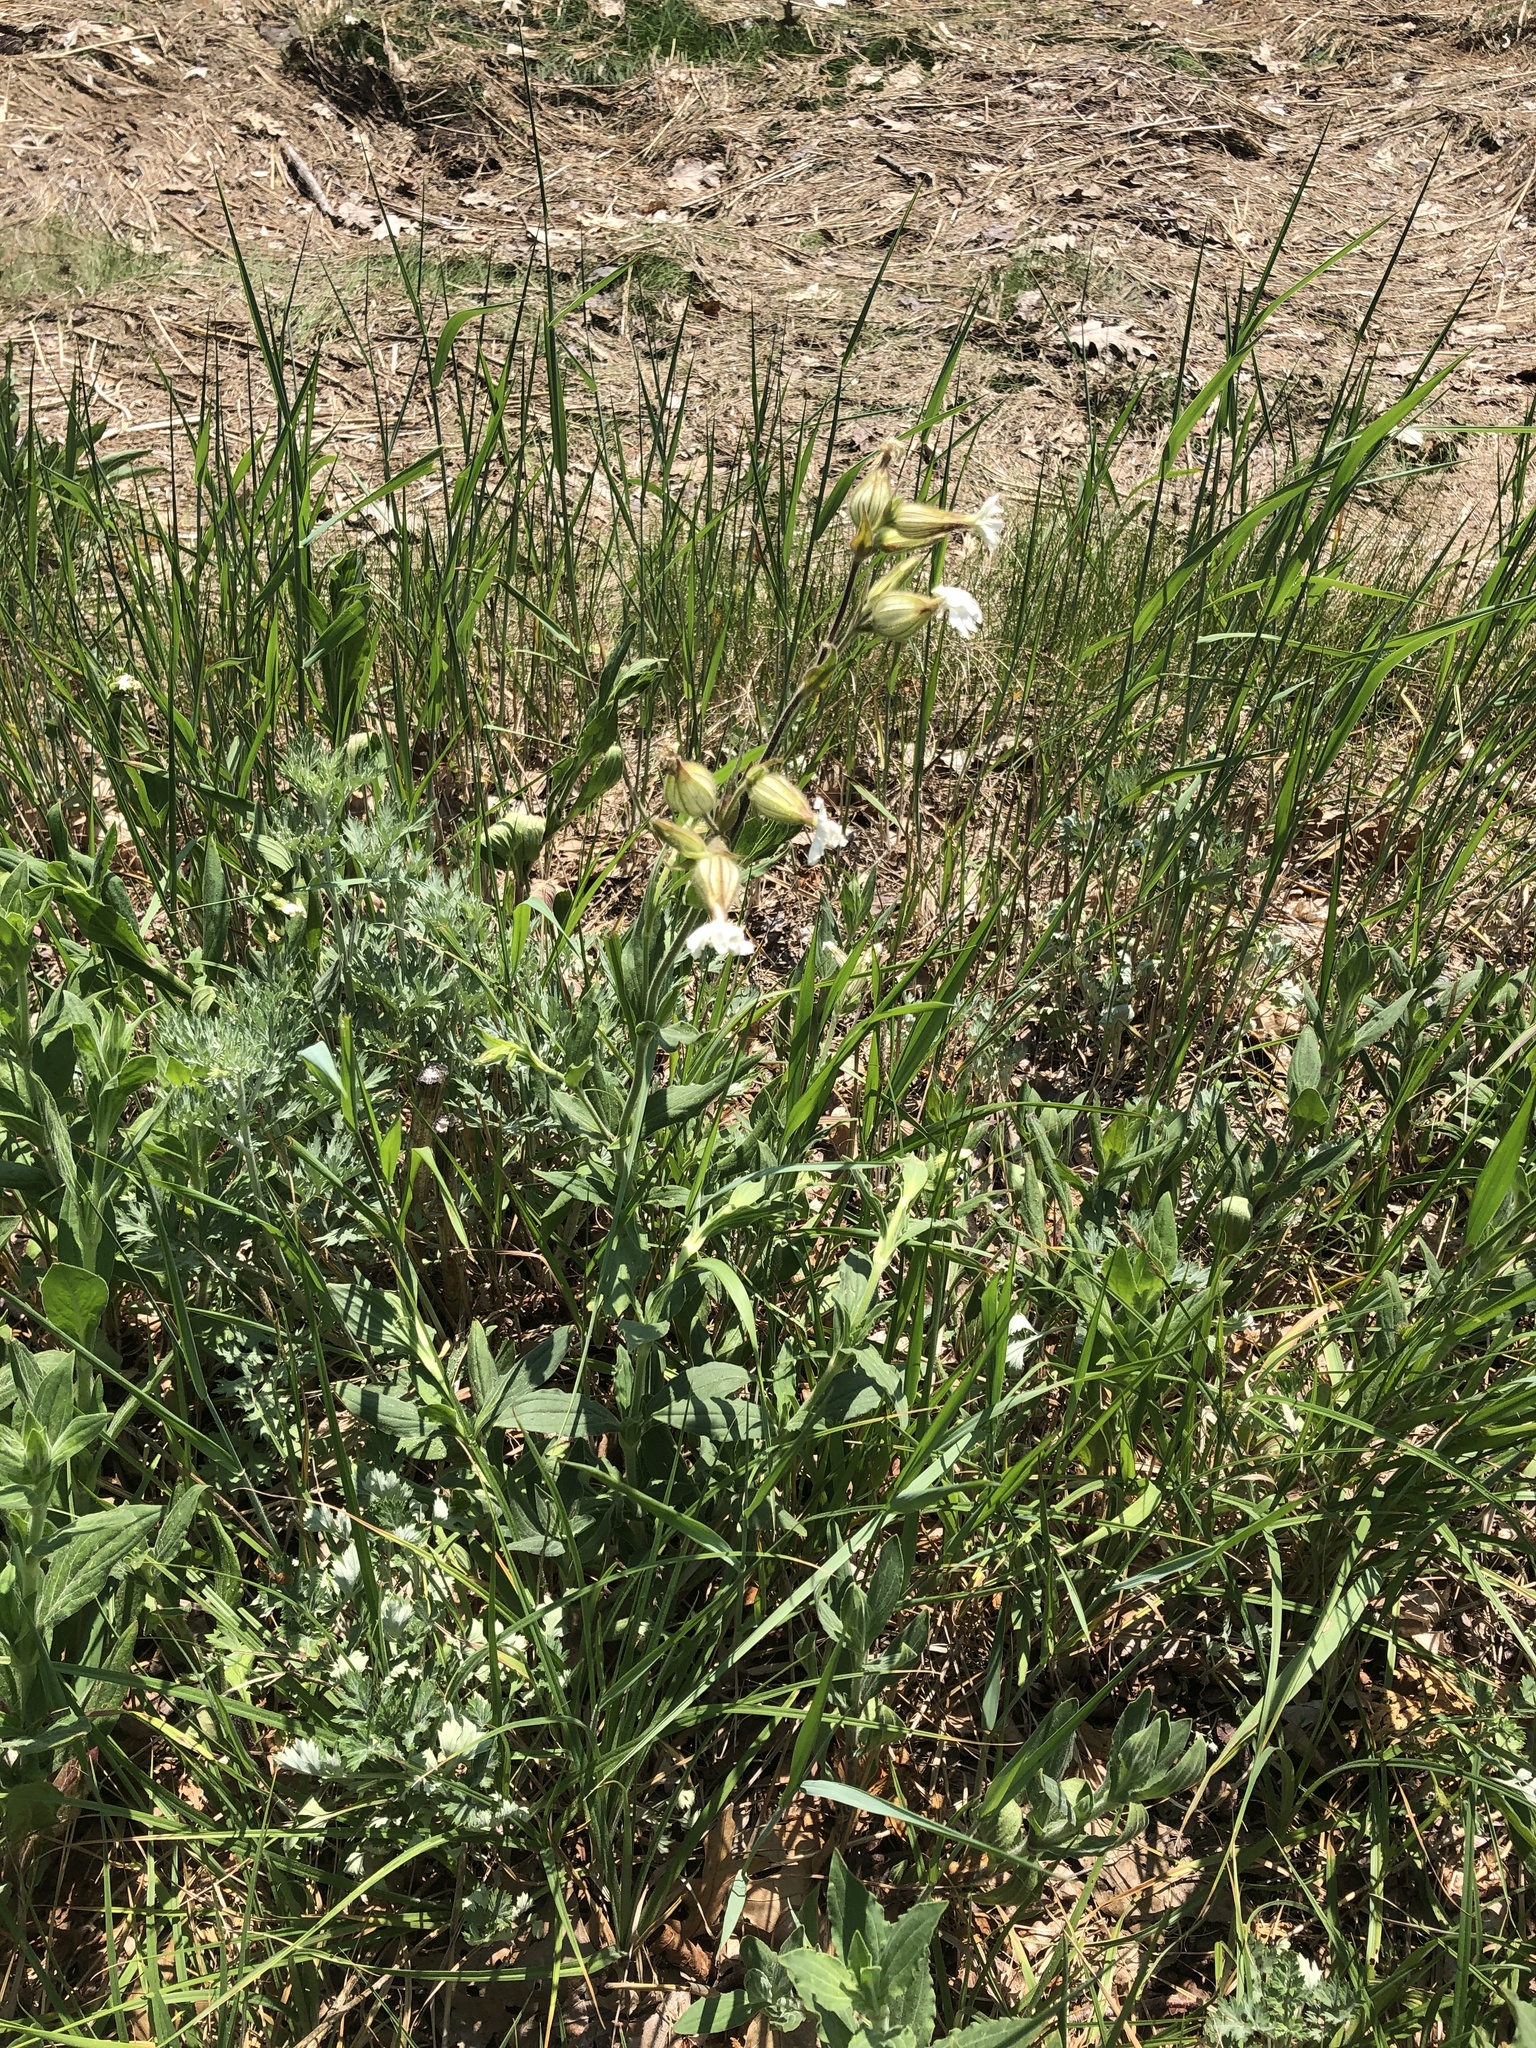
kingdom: Plantae
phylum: Tracheophyta
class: Magnoliopsida
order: Caryophyllales
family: Caryophyllaceae
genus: Silene
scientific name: Silene latifolia
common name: White campion
